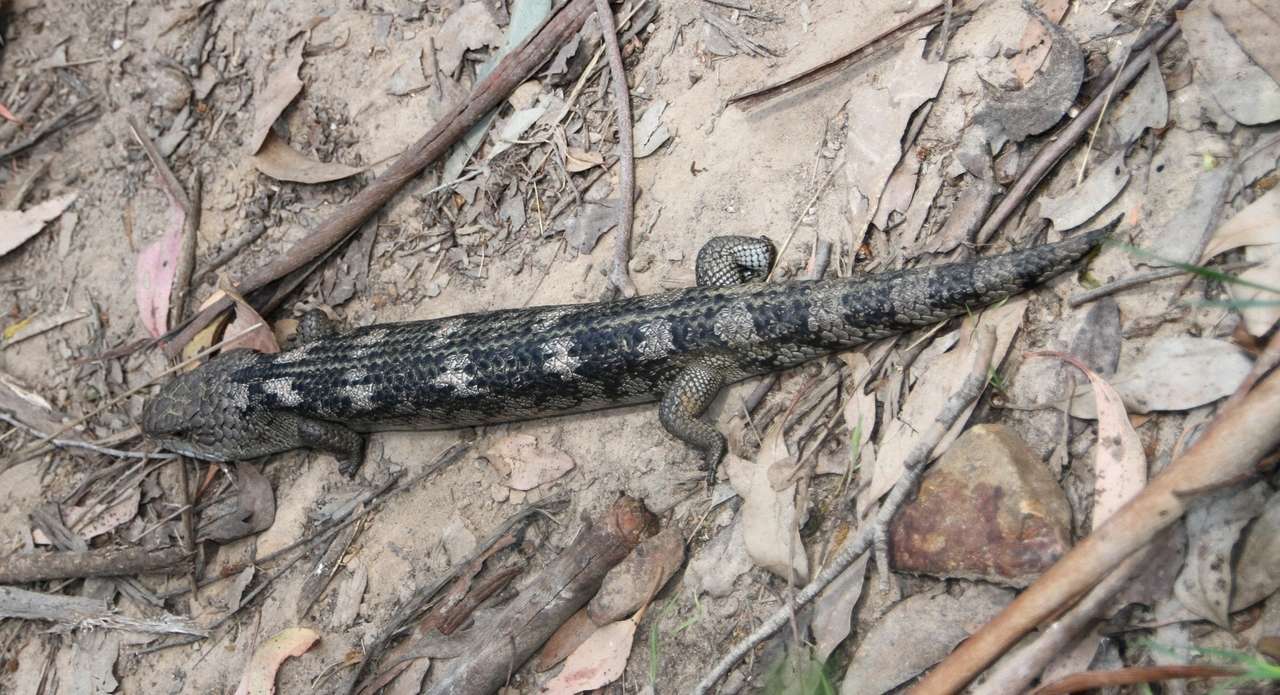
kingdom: Animalia
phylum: Chordata
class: Squamata
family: Scincidae
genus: Tiliqua
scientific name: Tiliqua nigrolutea
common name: Blotched blue-tongued lizard
